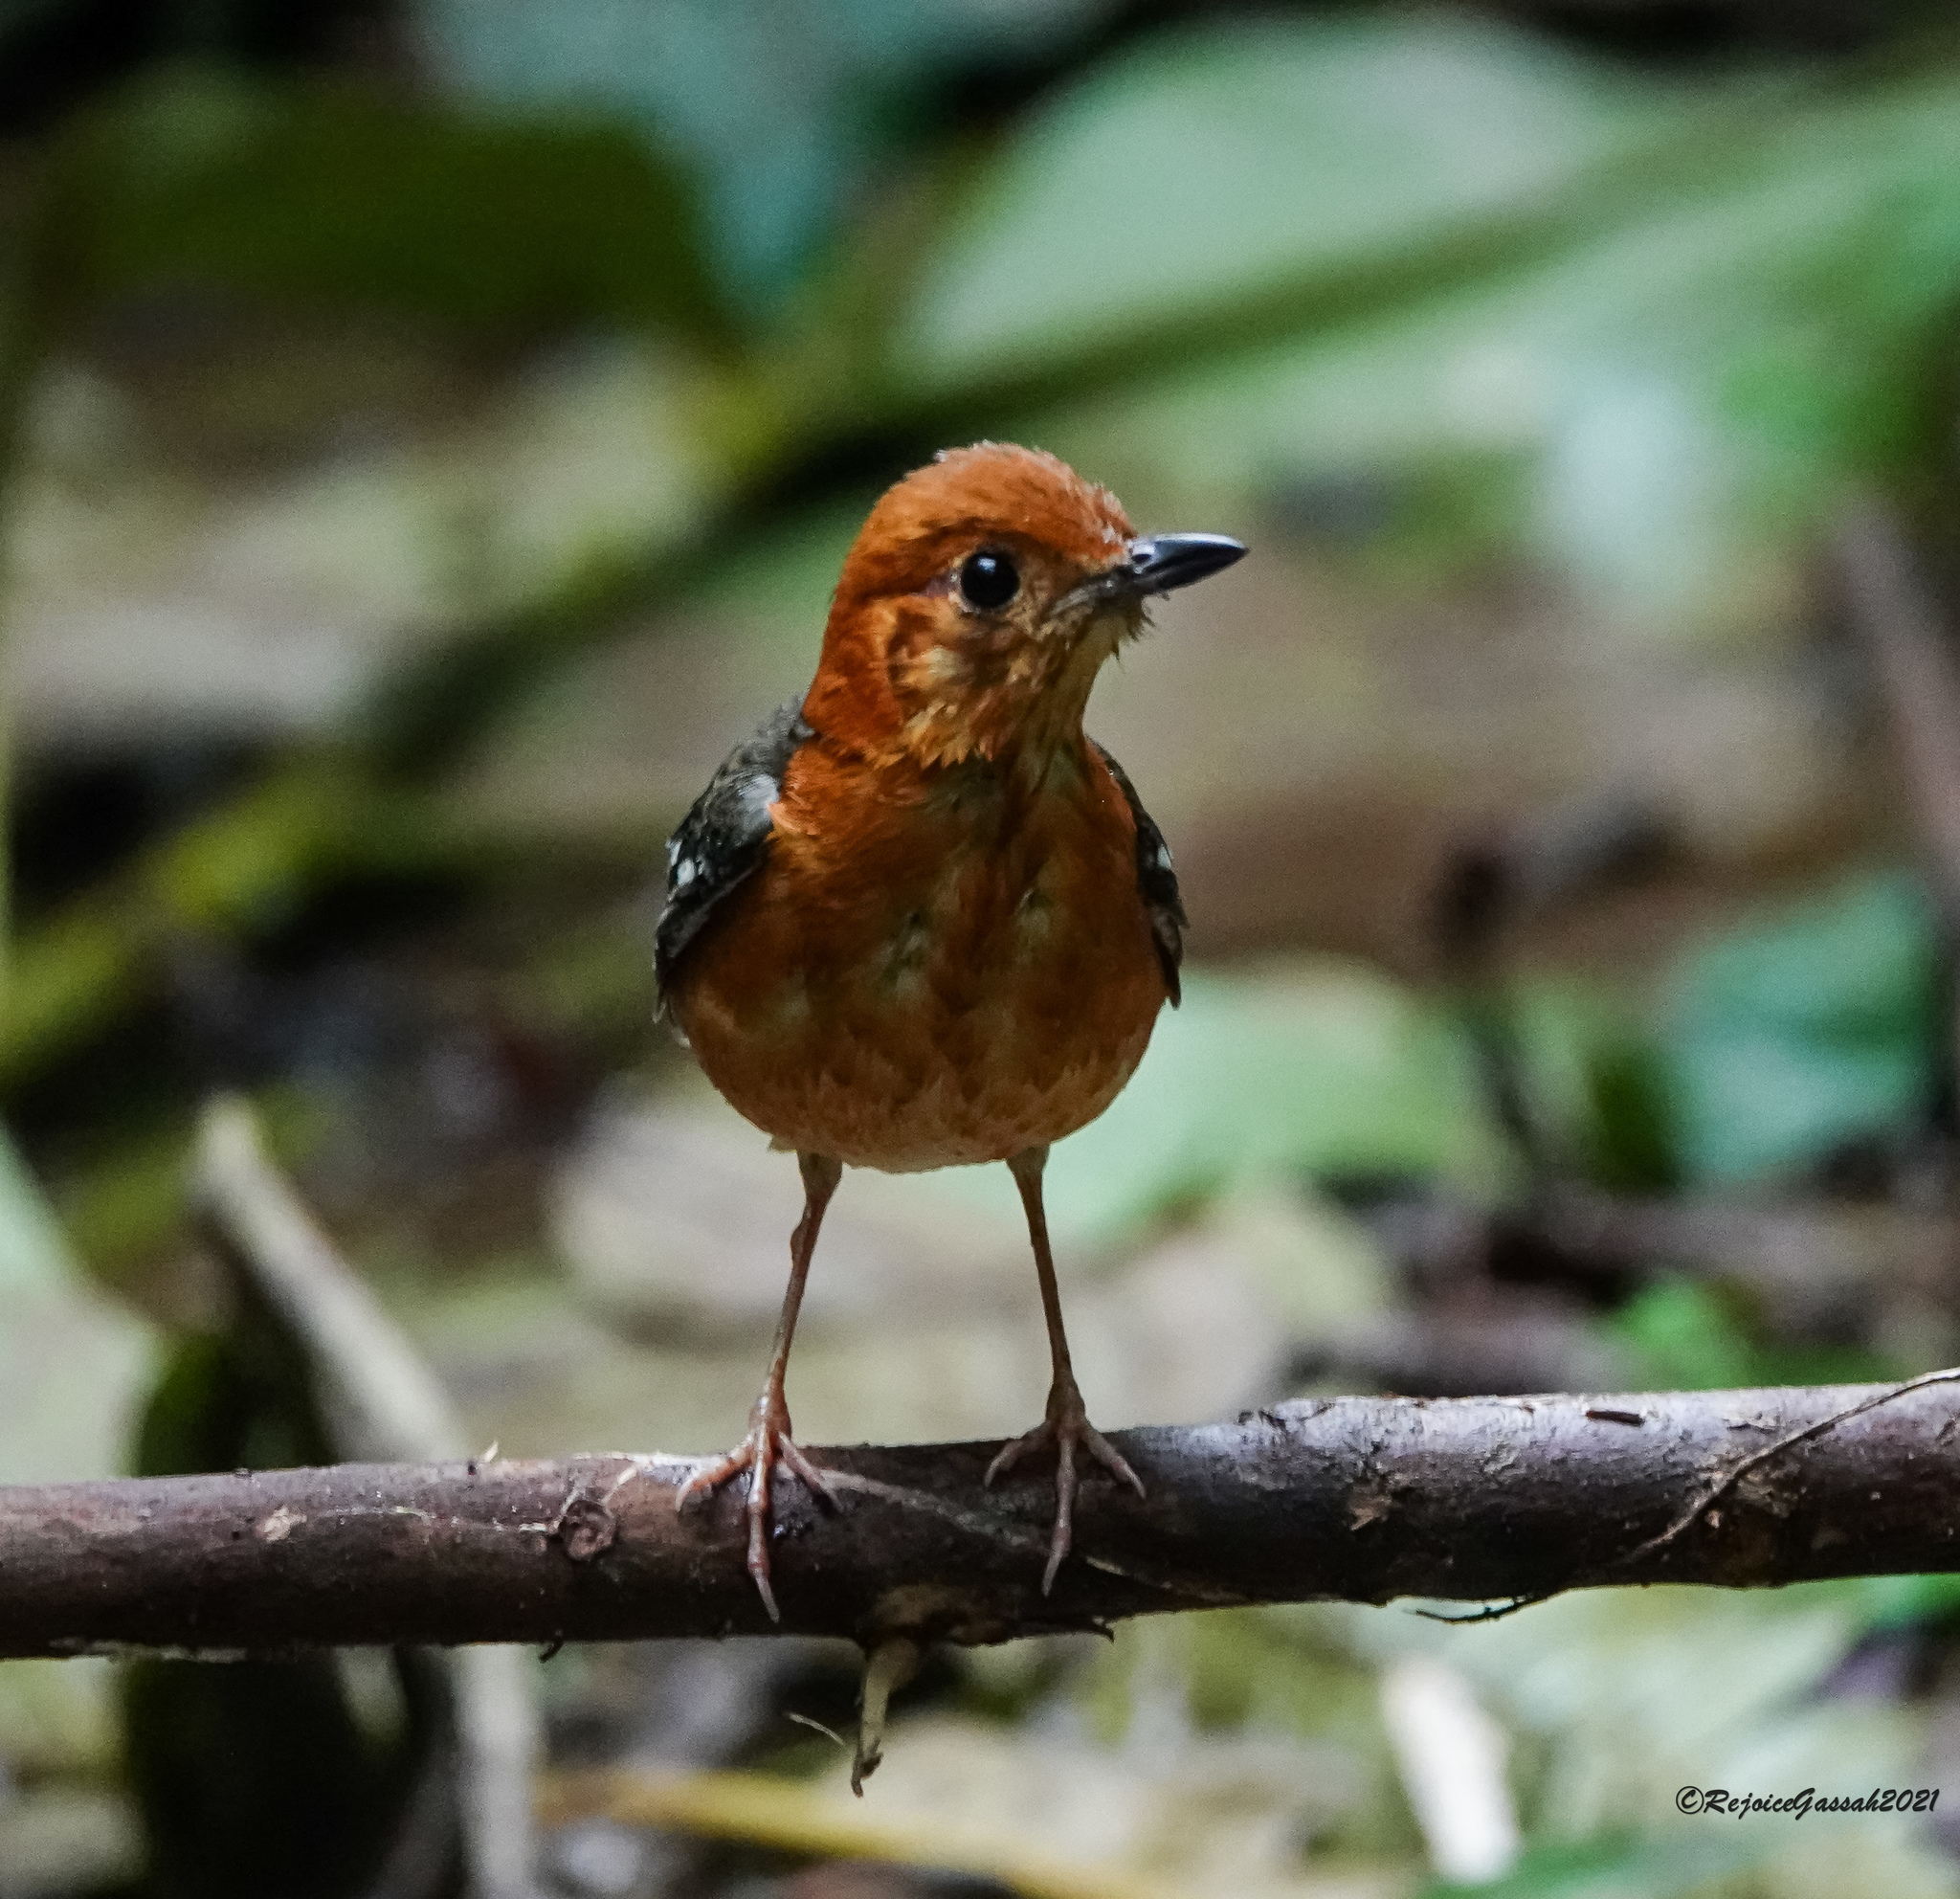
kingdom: Animalia
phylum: Chordata
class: Aves
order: Passeriformes
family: Turdidae
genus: Geokichla
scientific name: Geokichla citrina
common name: Orange-headed thrush
